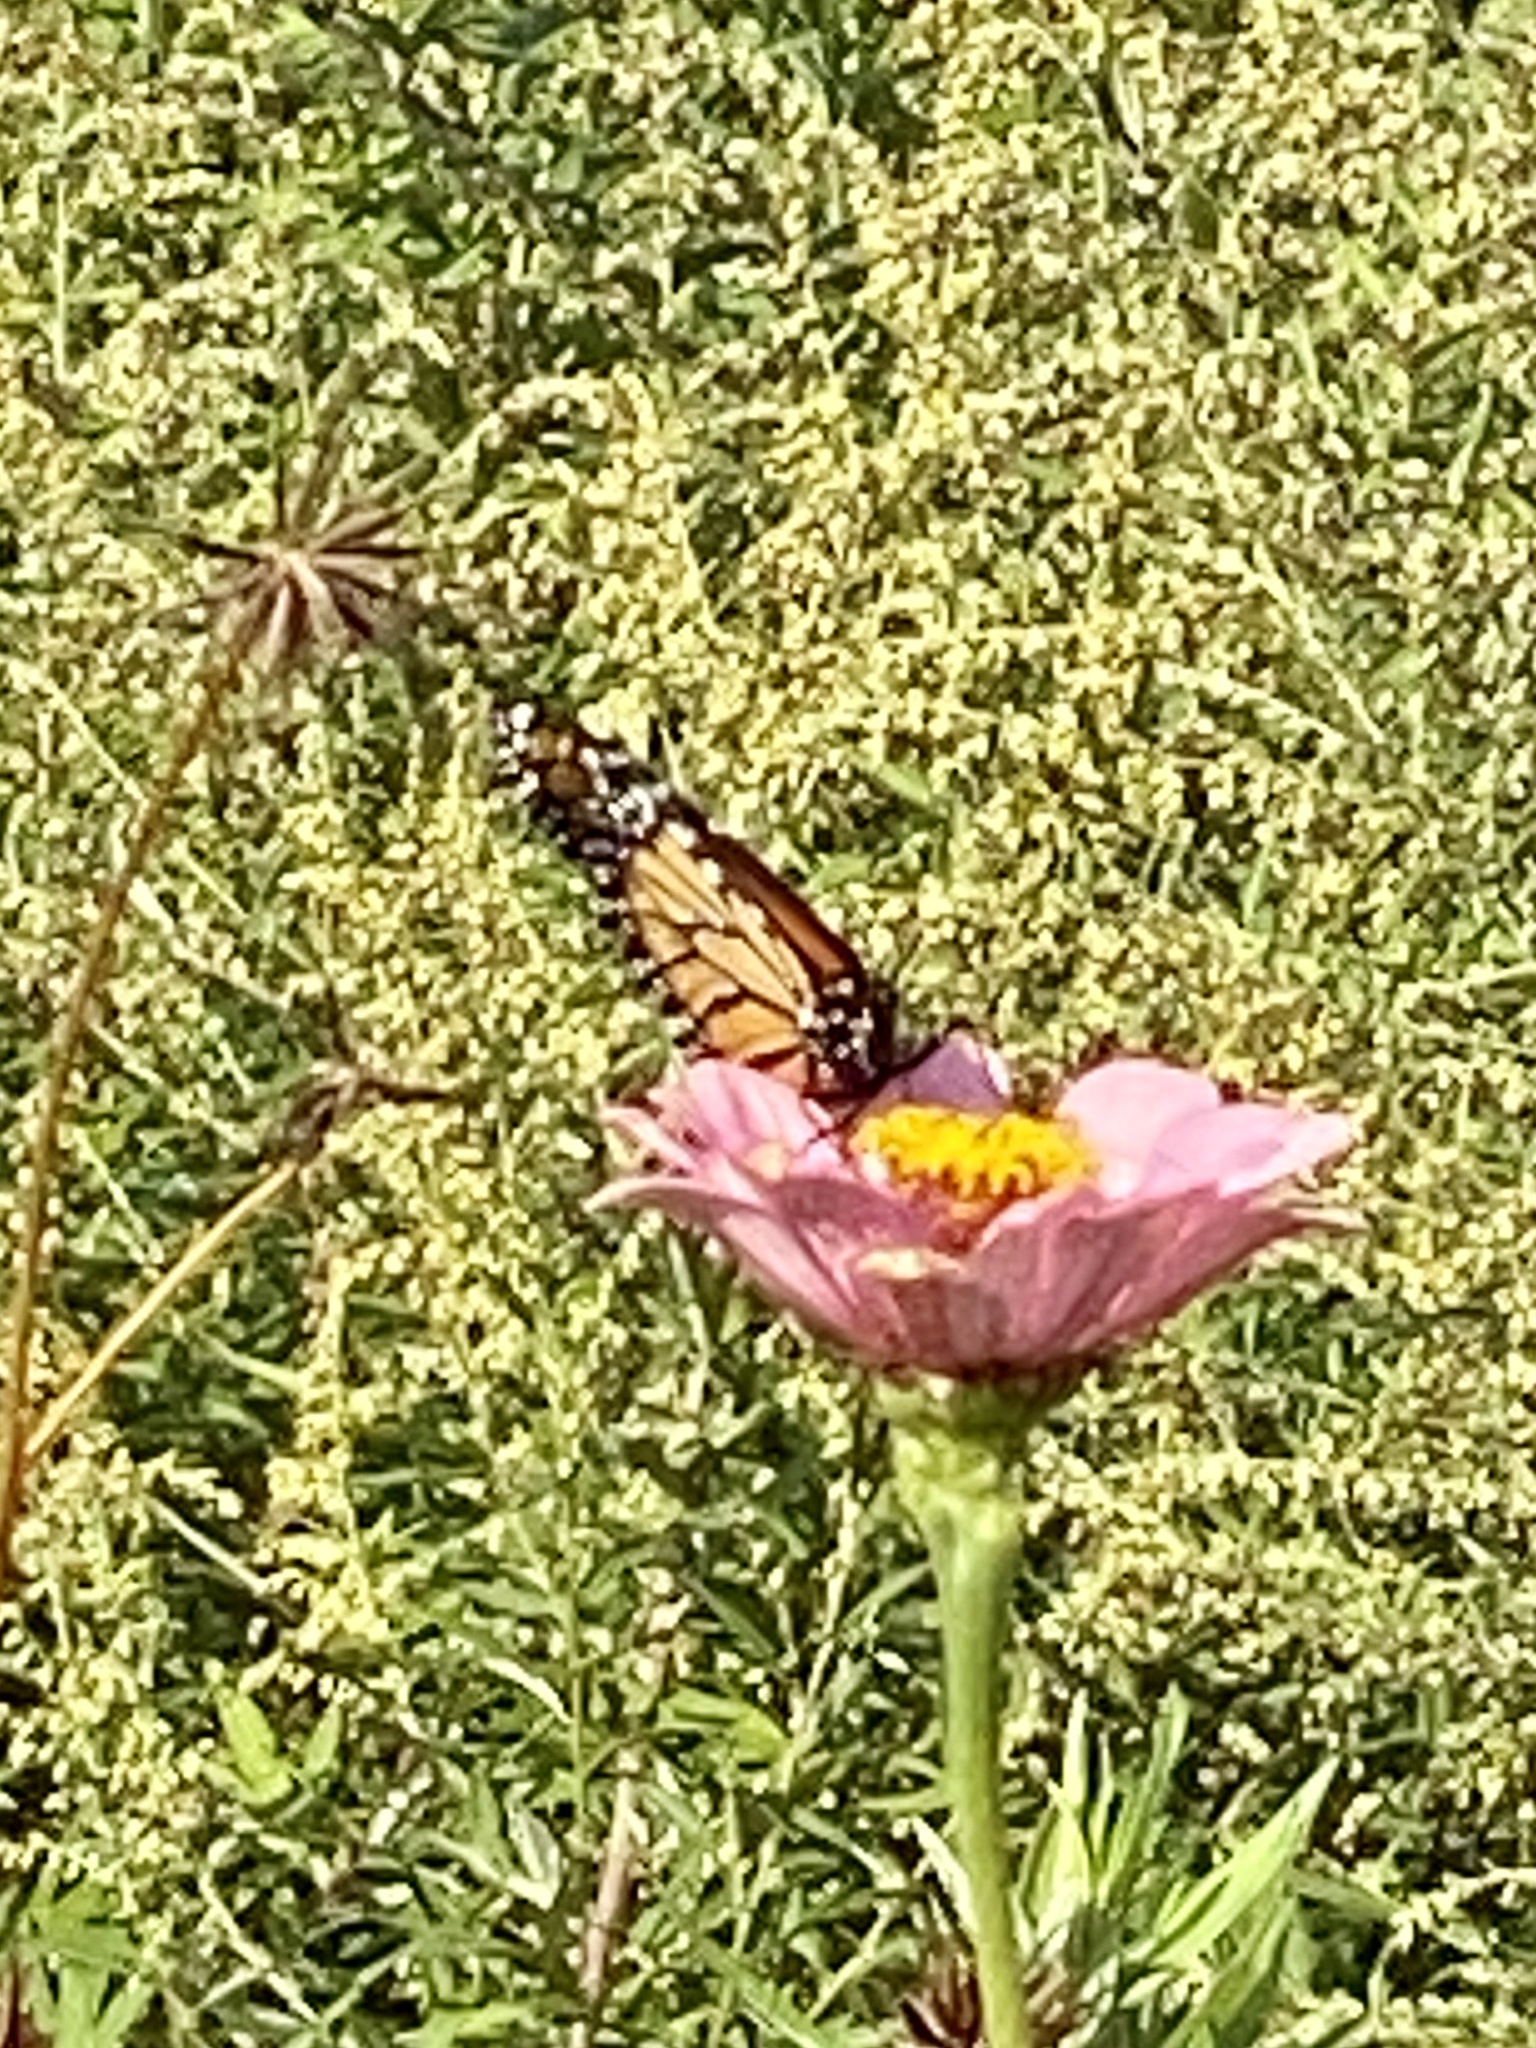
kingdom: Animalia
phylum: Arthropoda
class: Insecta
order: Lepidoptera
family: Nymphalidae
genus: Danaus
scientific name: Danaus plexippus
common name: Monarch
